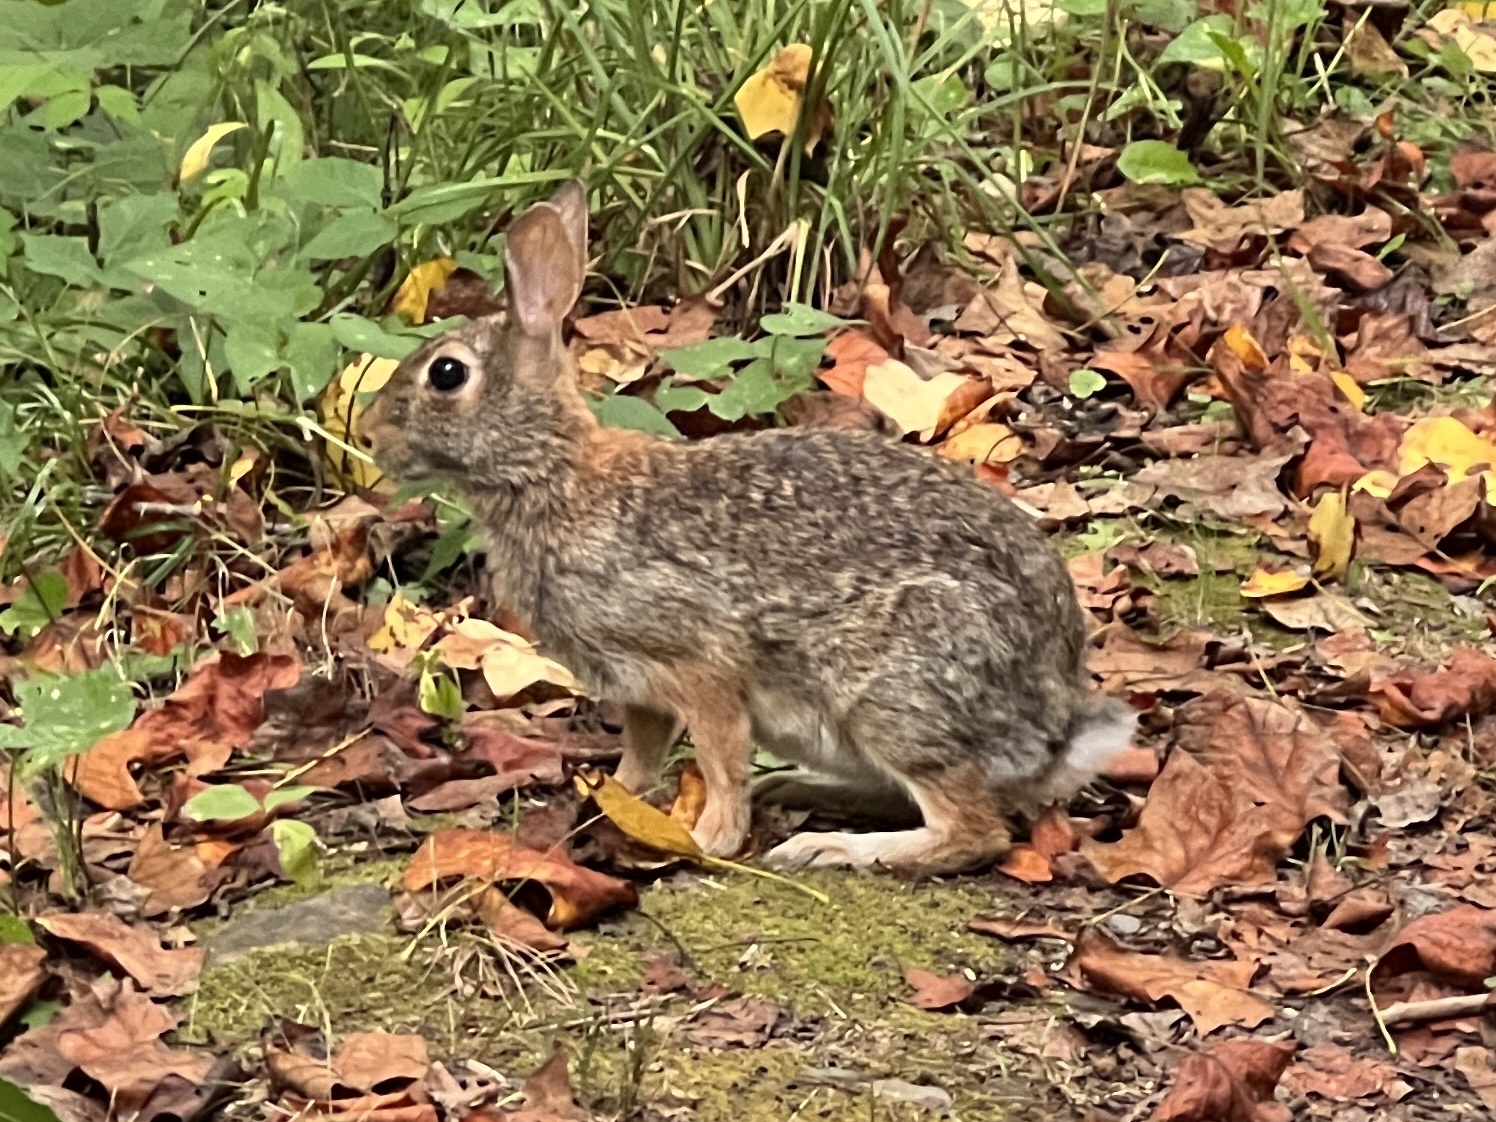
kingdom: Animalia
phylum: Chordata
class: Mammalia
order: Lagomorpha
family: Leporidae
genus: Sylvilagus
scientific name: Sylvilagus floridanus
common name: Eastern cottontail
